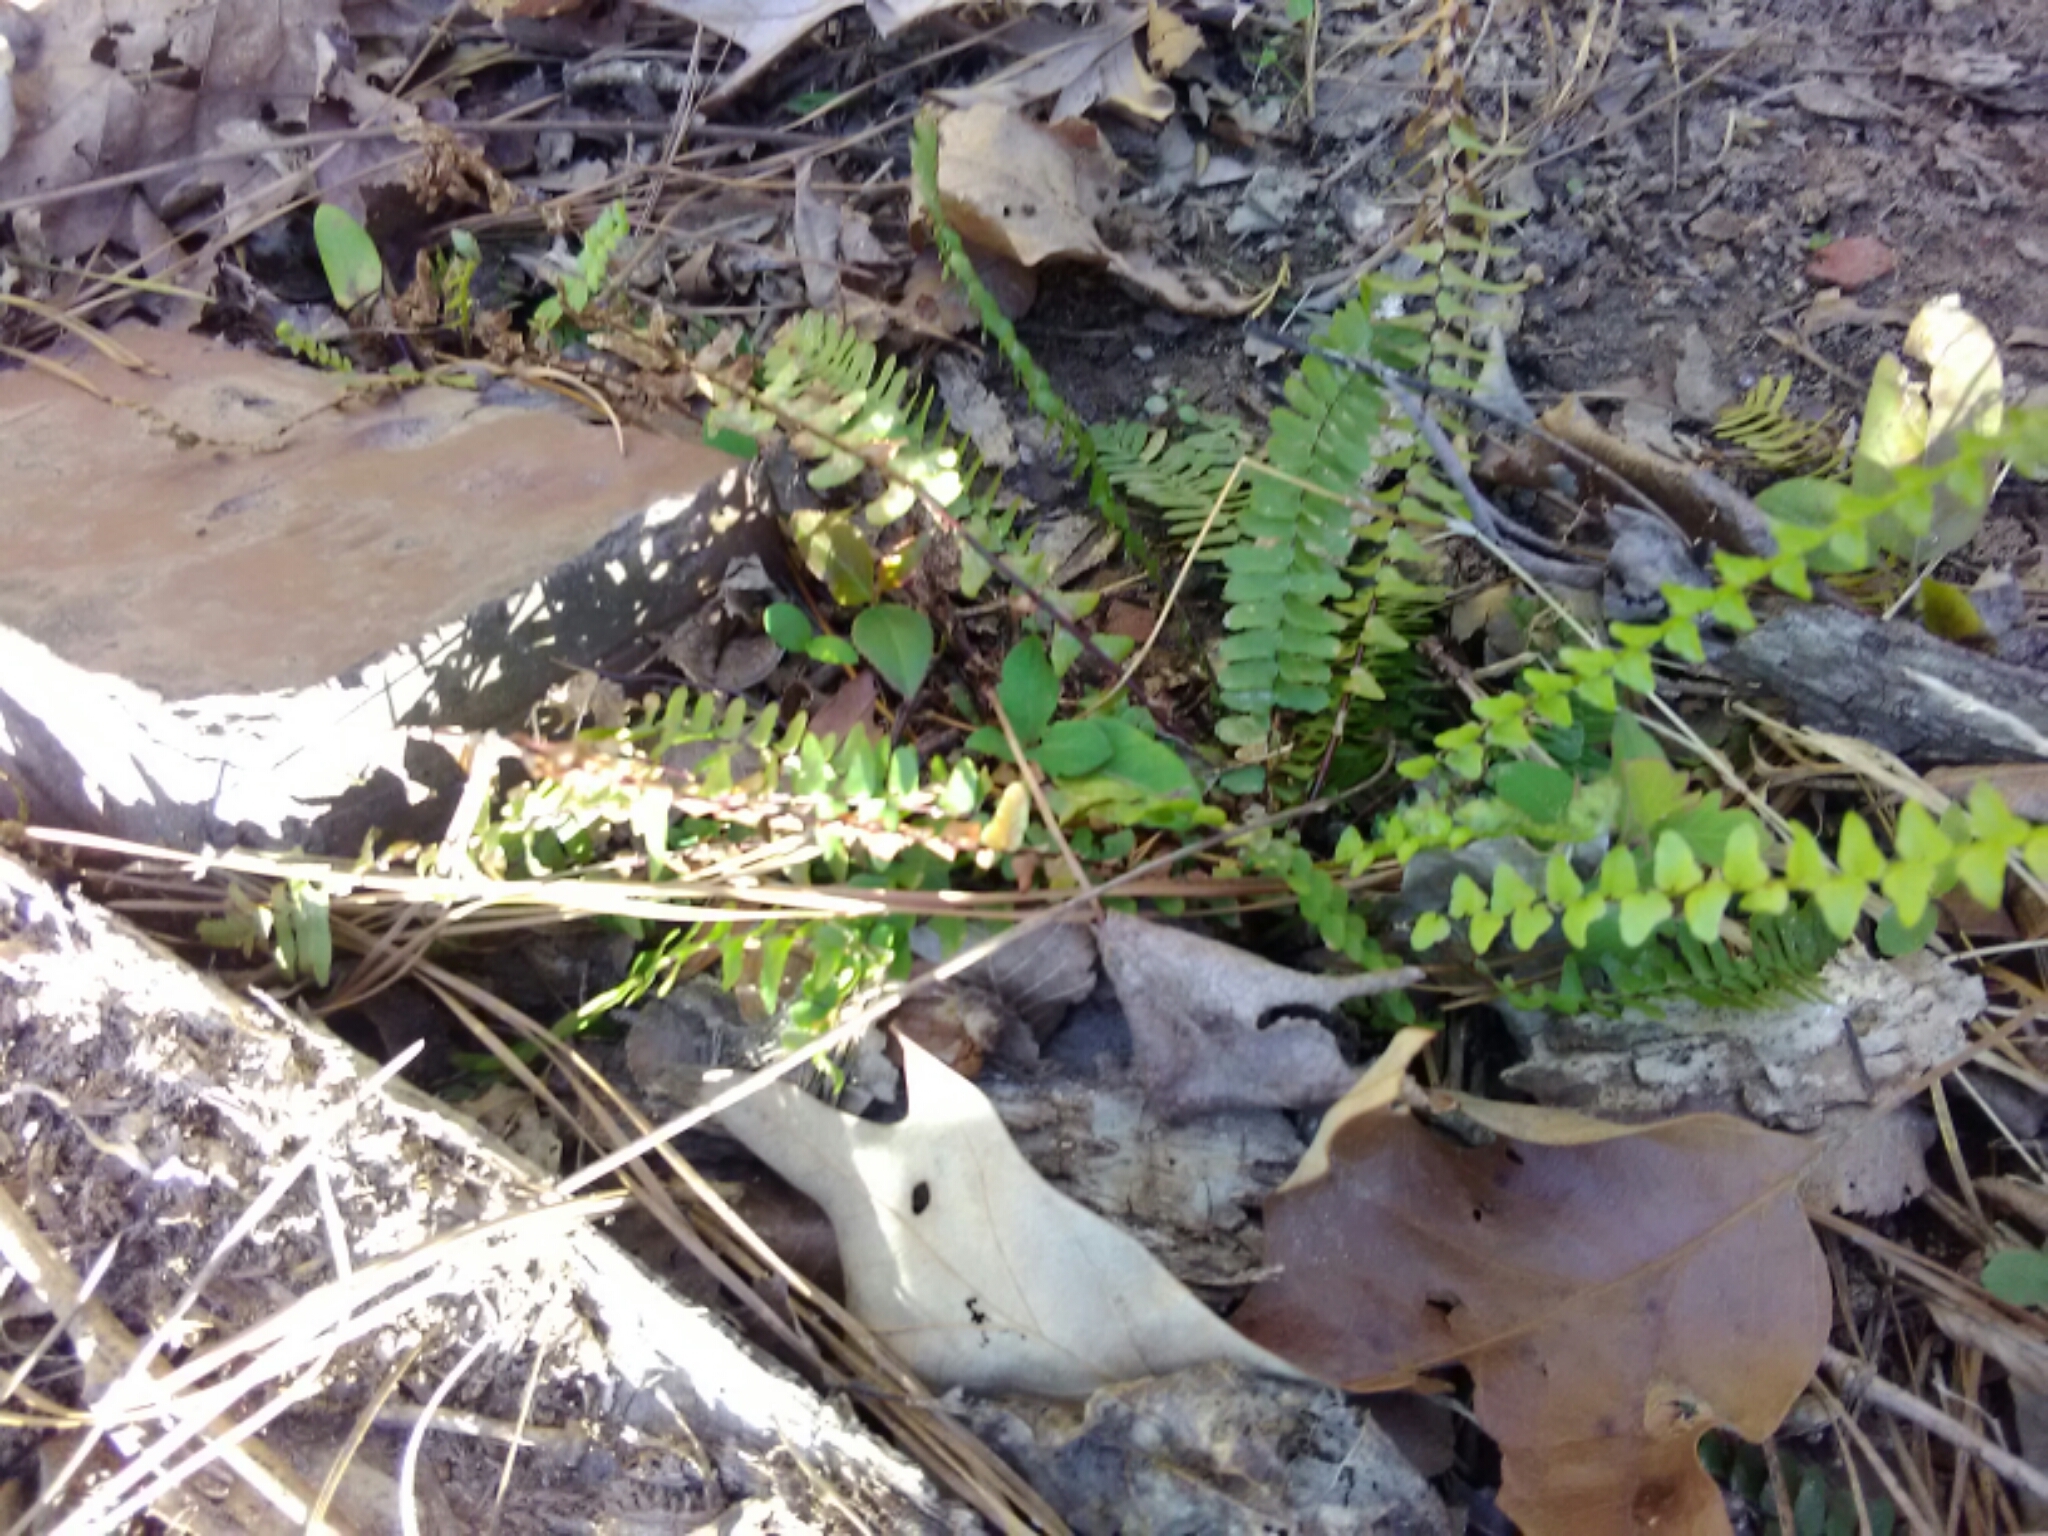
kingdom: Plantae
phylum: Tracheophyta
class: Polypodiopsida
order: Polypodiales
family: Aspleniaceae
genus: Asplenium
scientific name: Asplenium platyneuron
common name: Ebony spleenwort
